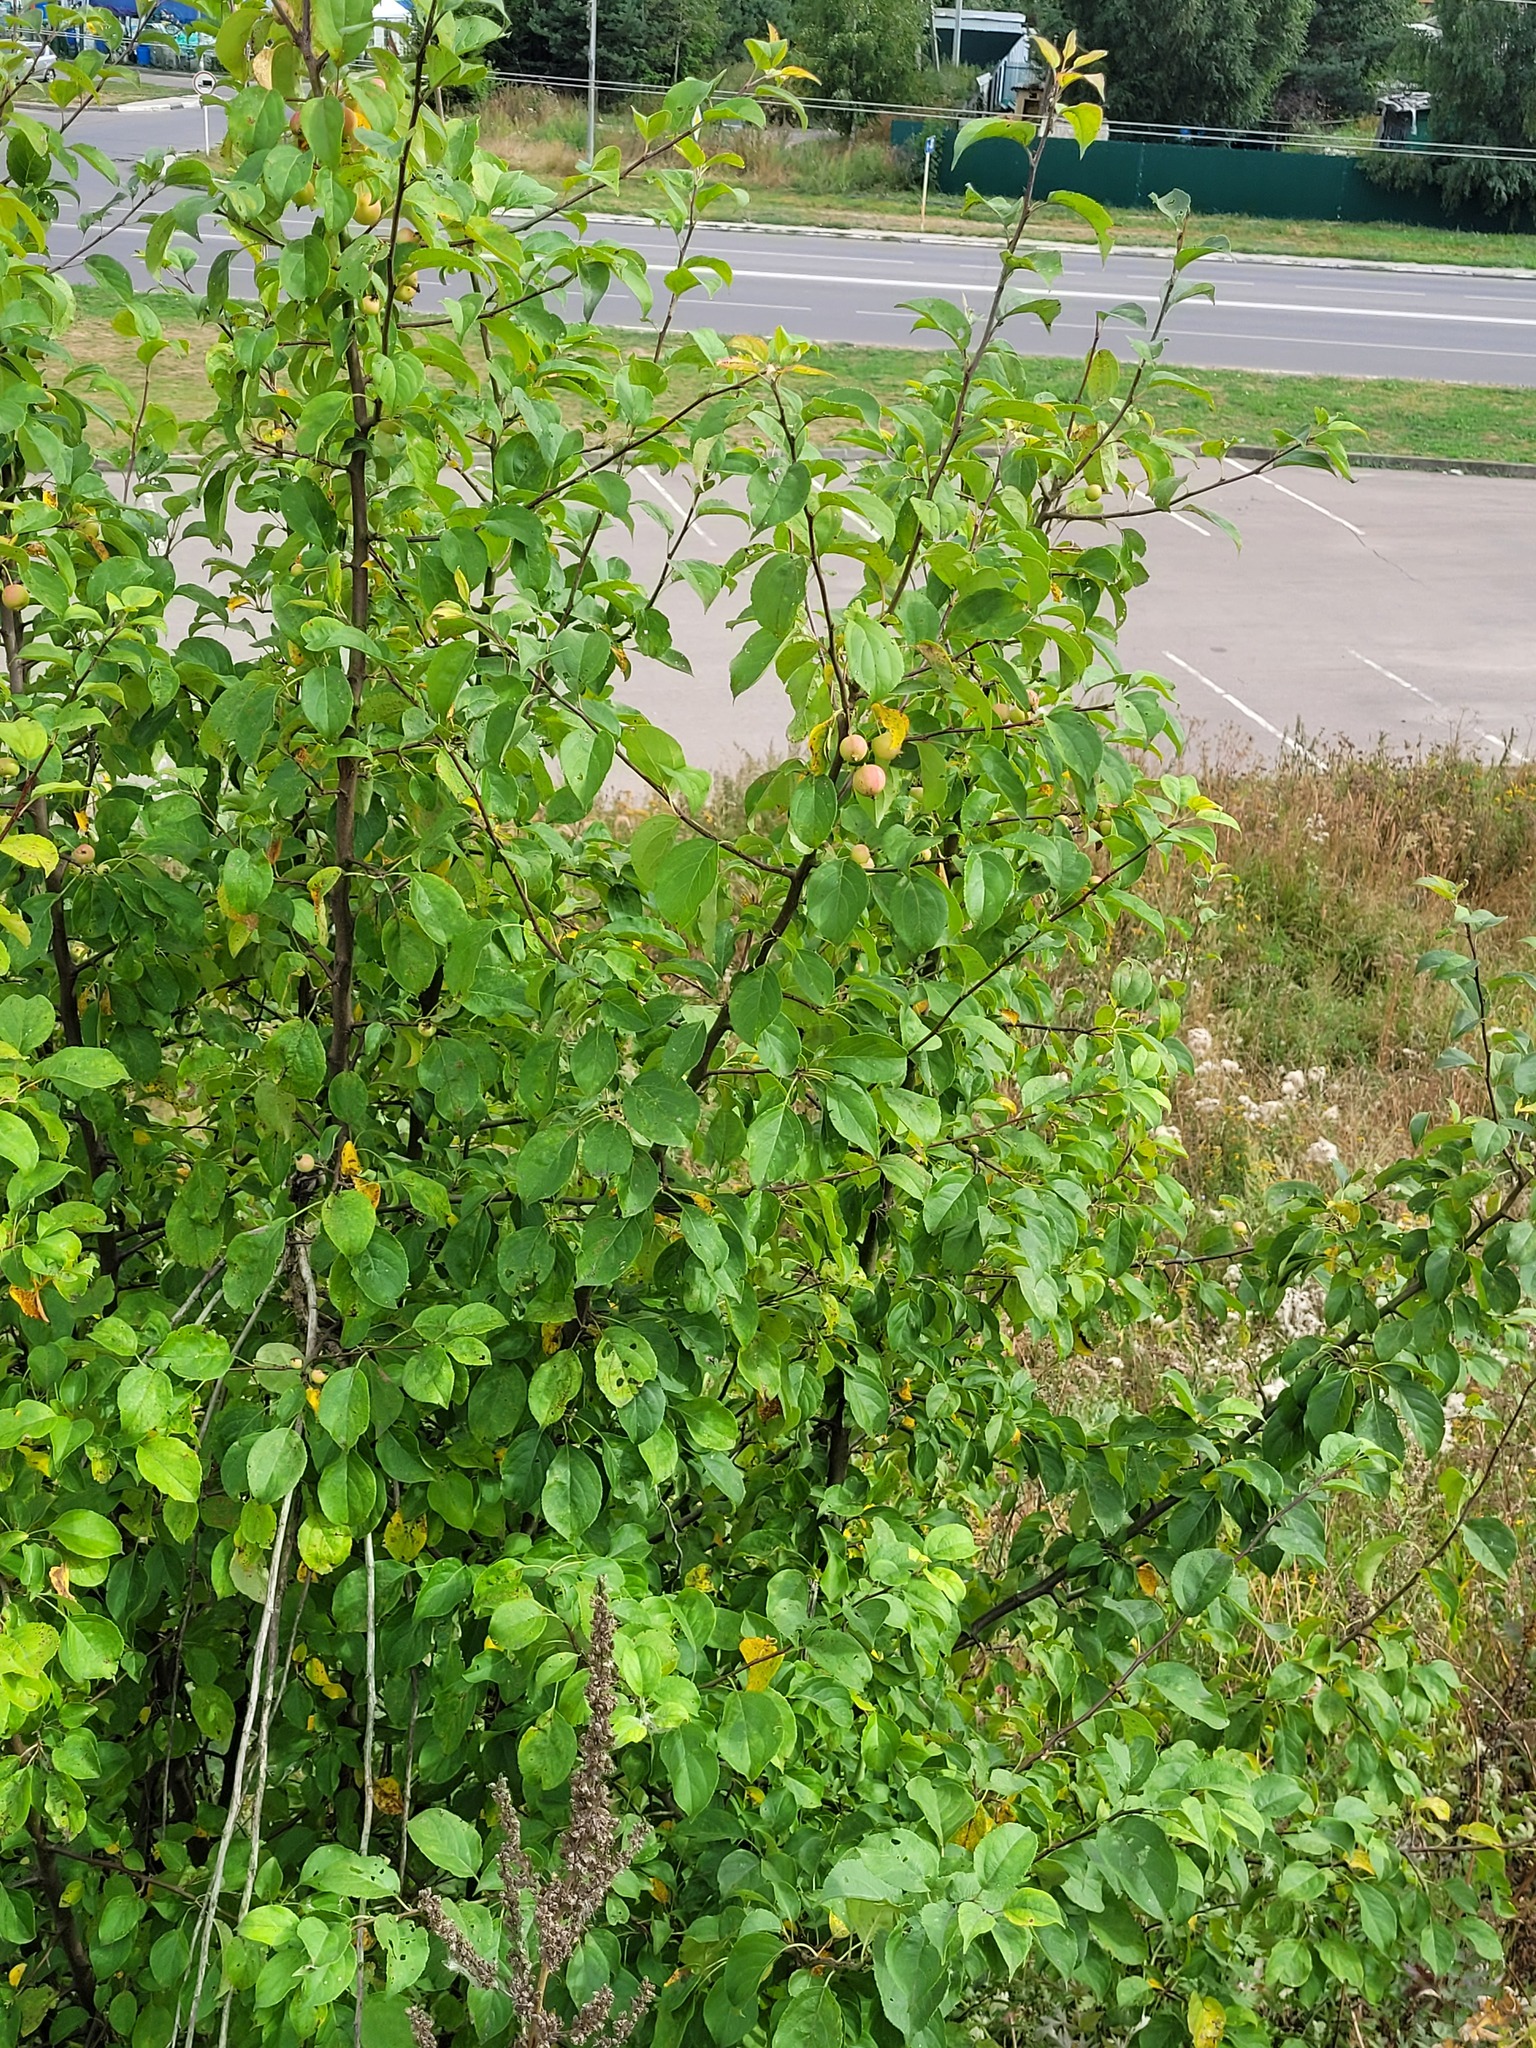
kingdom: Plantae
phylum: Tracheophyta
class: Magnoliopsida
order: Rosales
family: Rosaceae
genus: Malus
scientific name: Malus domestica
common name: Apple
